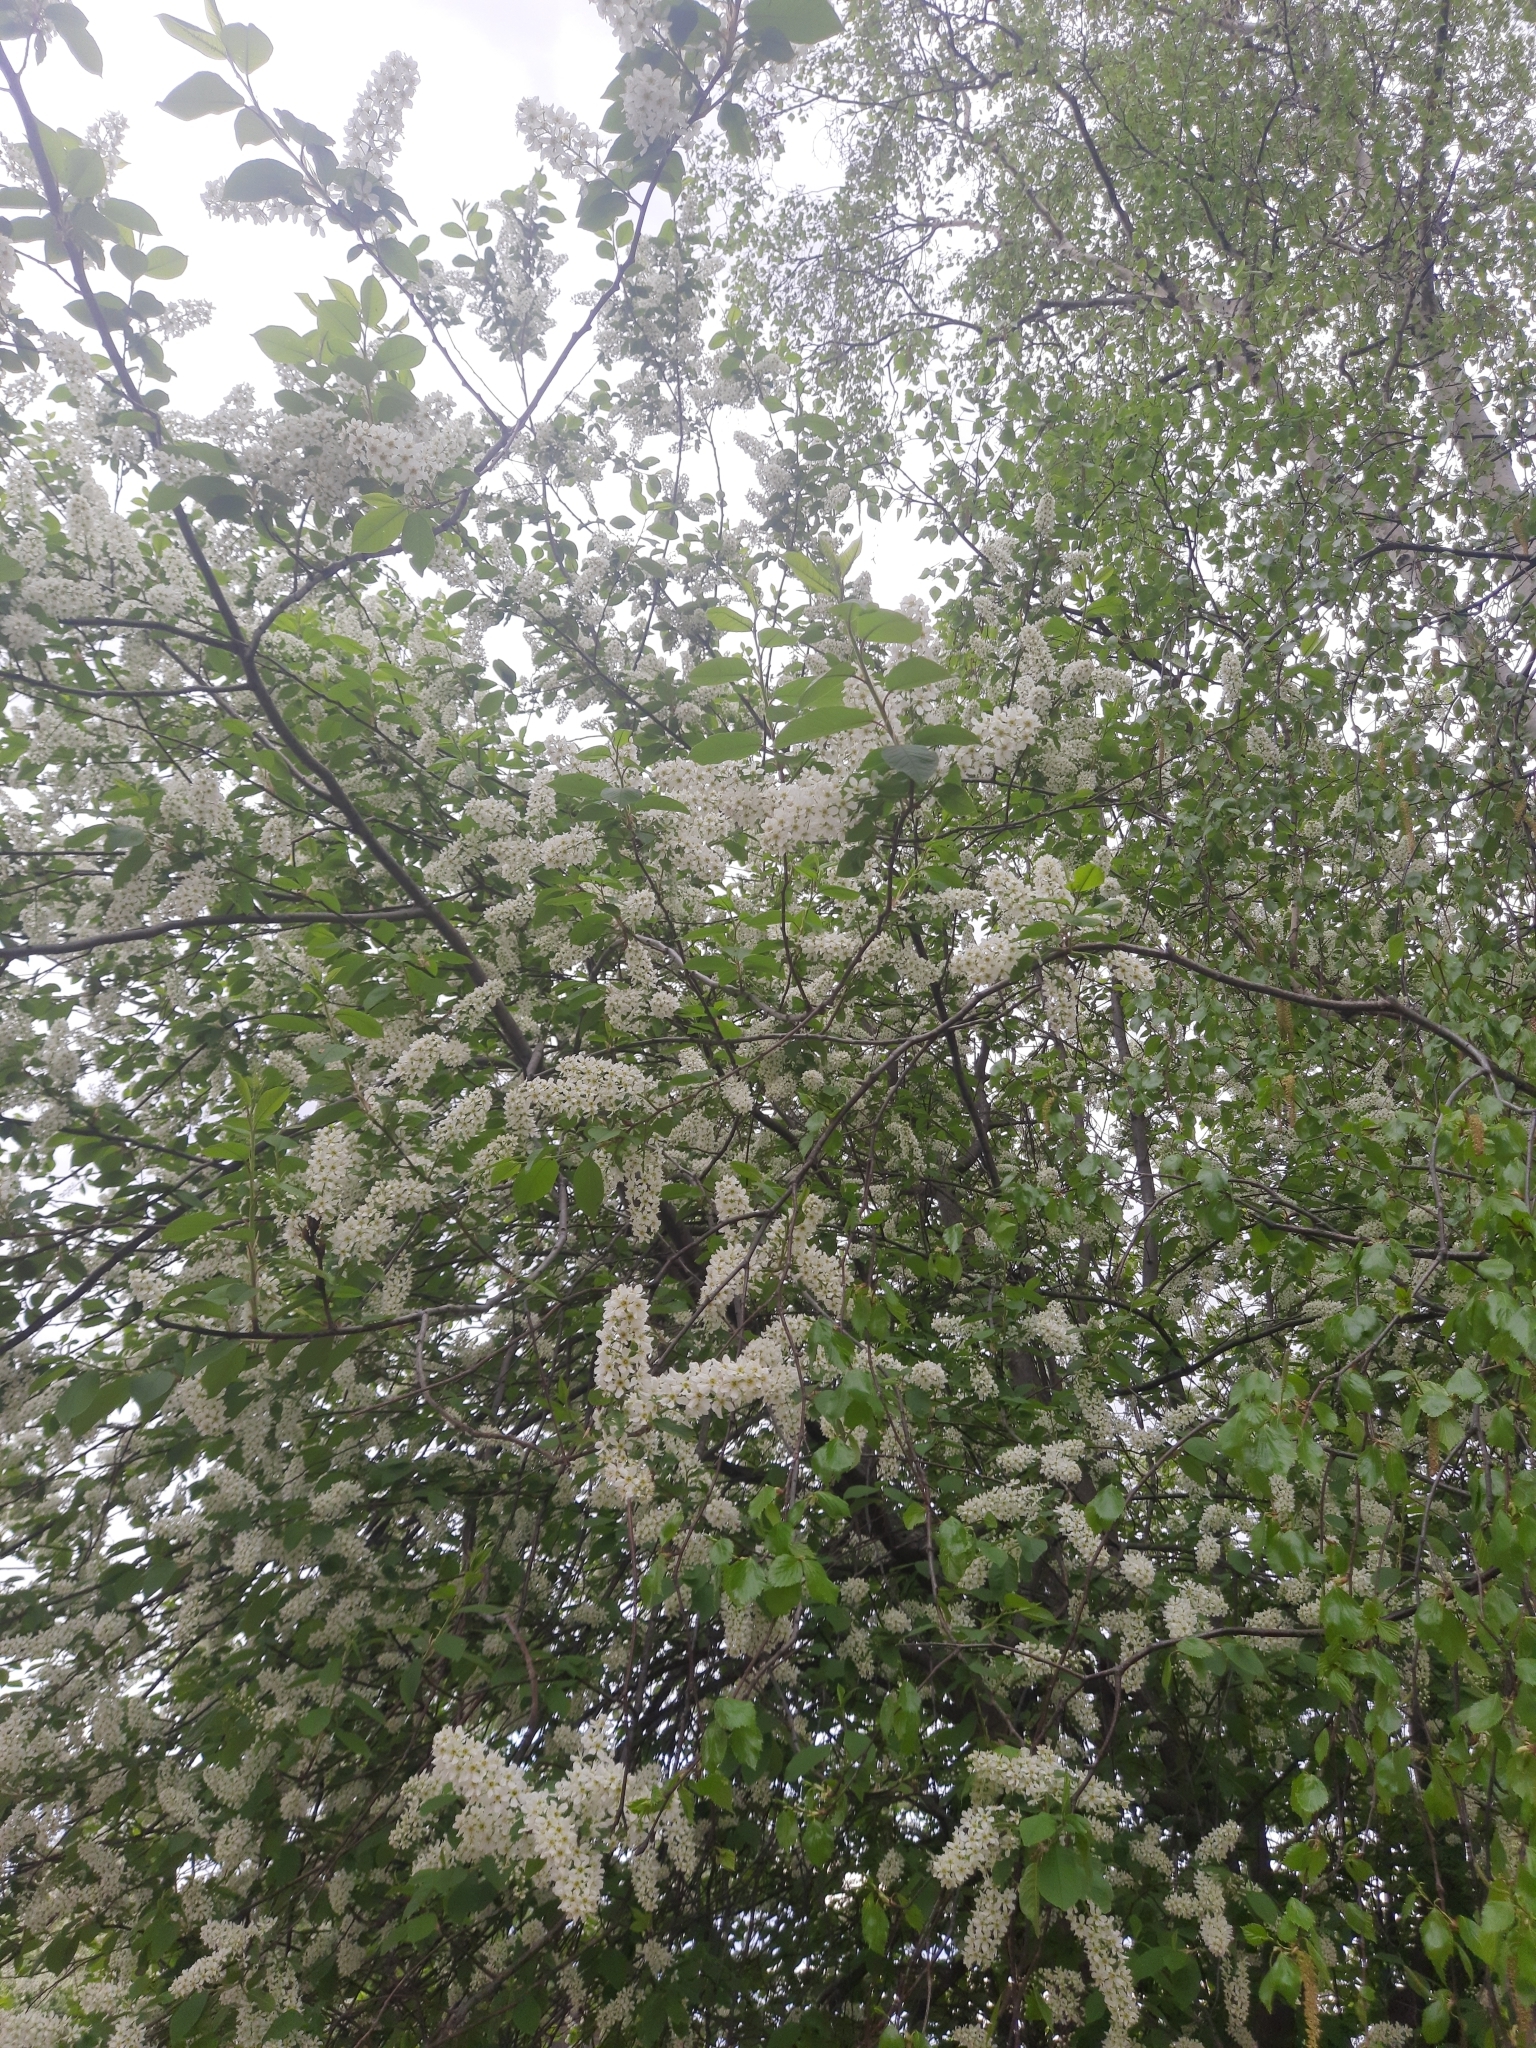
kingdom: Plantae
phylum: Tracheophyta
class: Magnoliopsida
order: Rosales
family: Rosaceae
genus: Prunus
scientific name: Prunus padus
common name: Bird cherry
